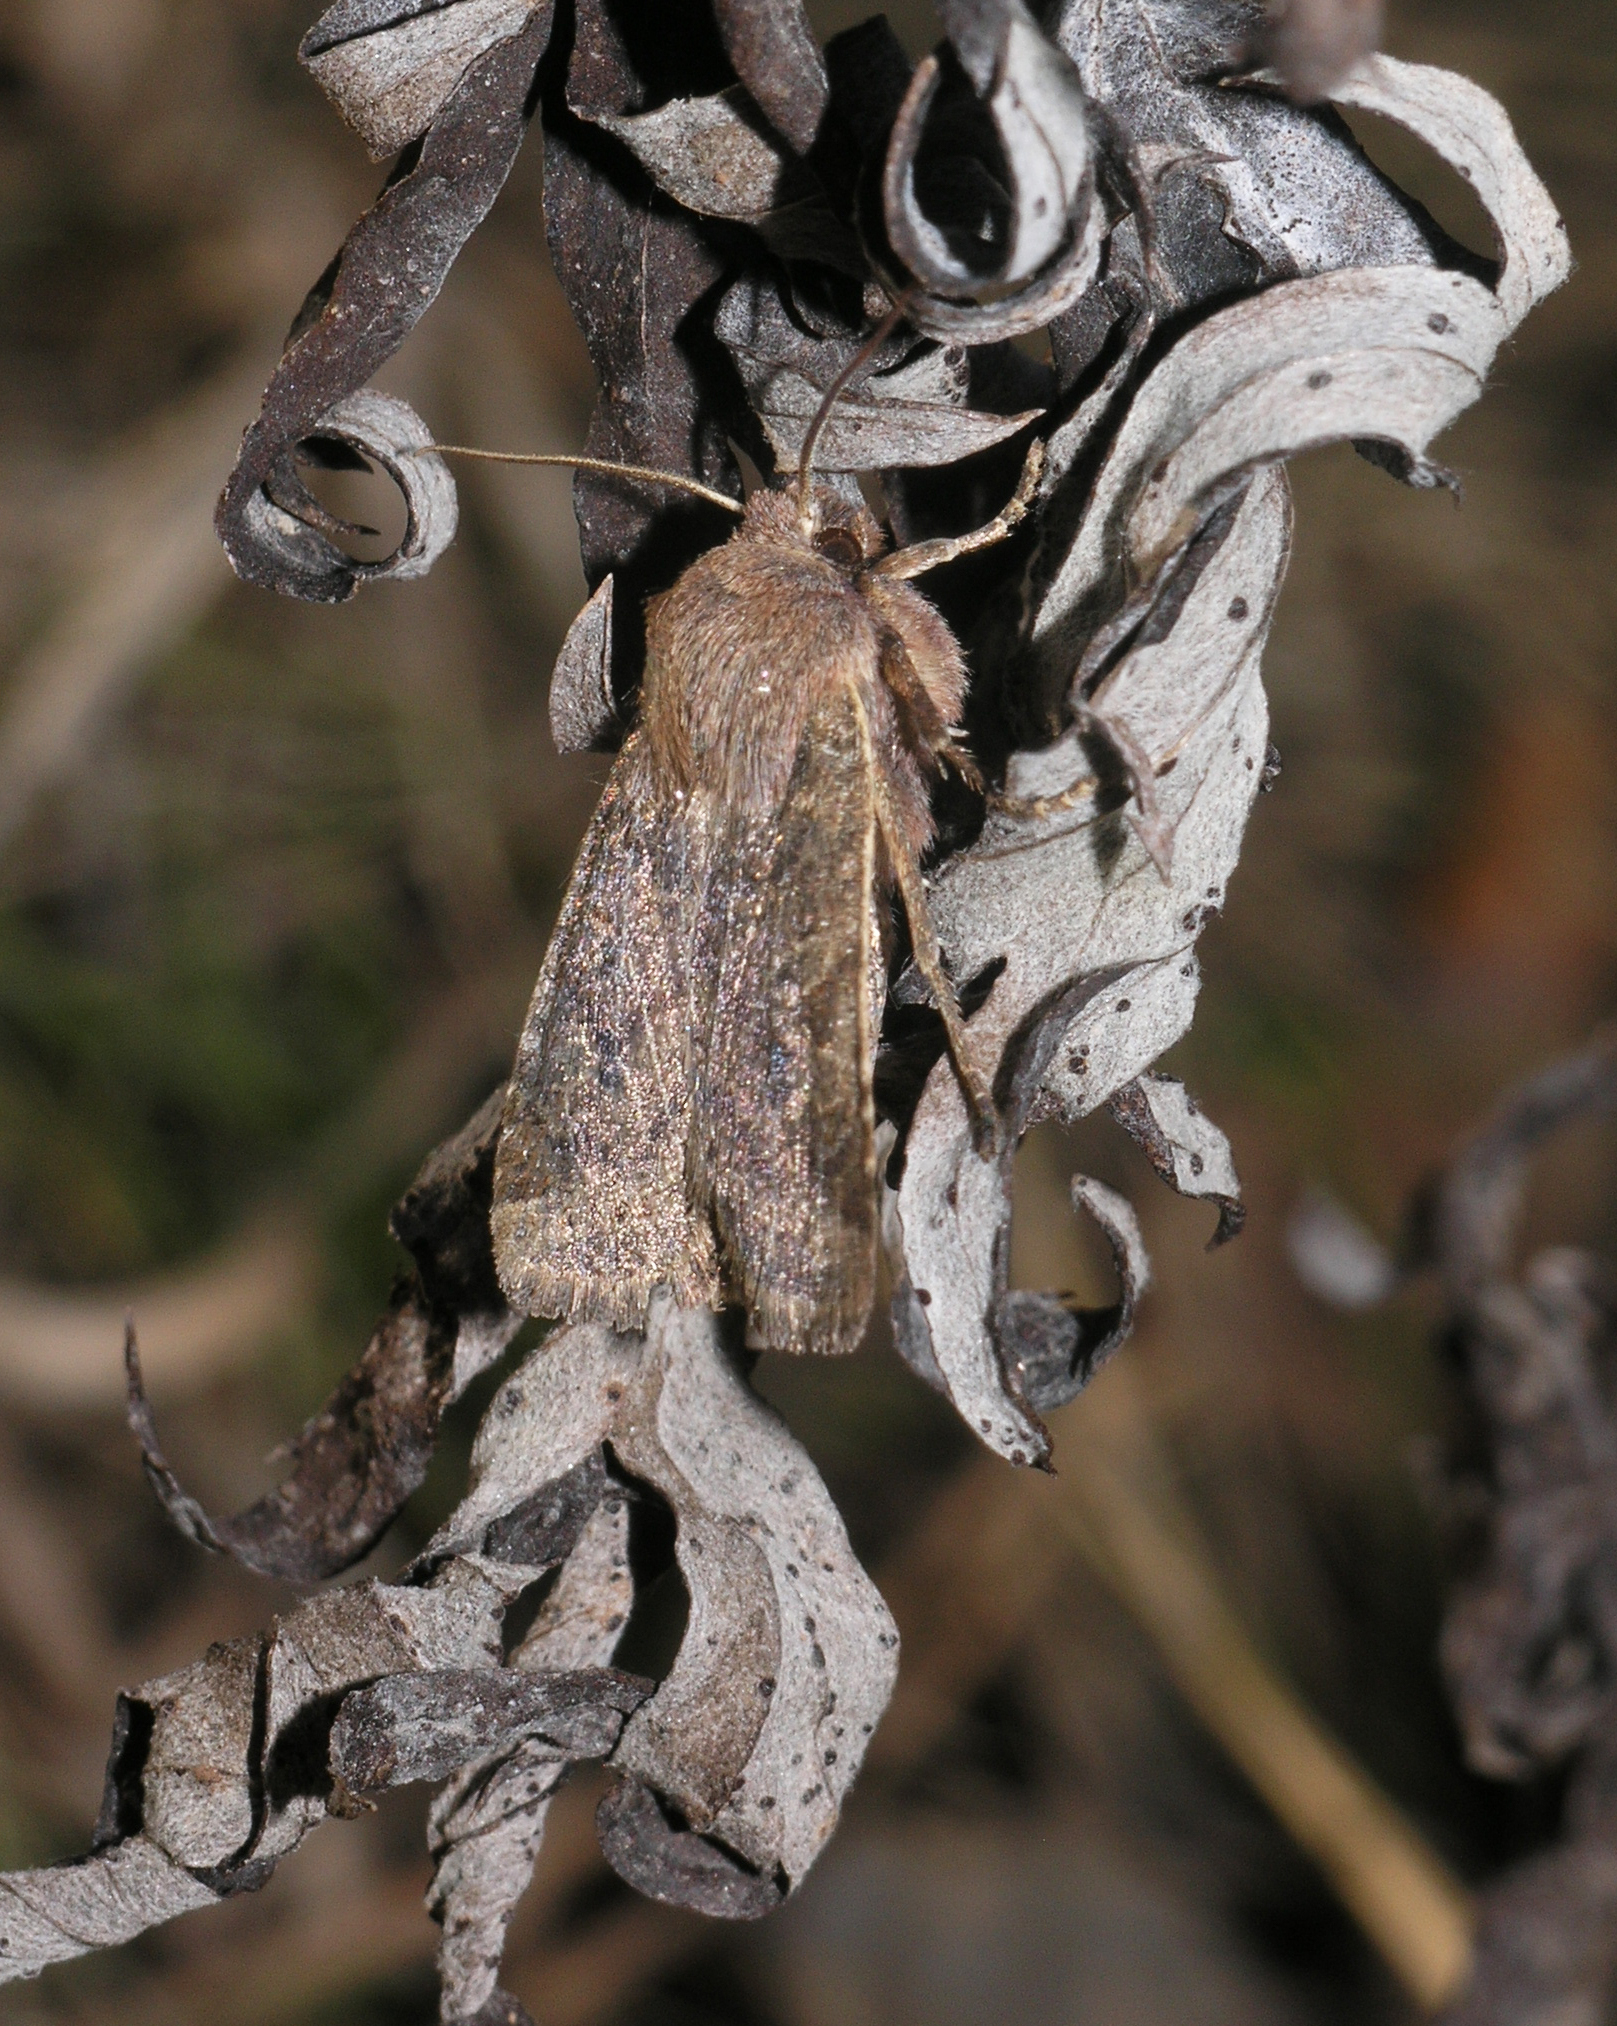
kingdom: Animalia
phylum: Arthropoda
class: Insecta
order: Lepidoptera
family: Noctuidae
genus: Conistra
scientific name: Conistra vaccinii
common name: Chestnut
